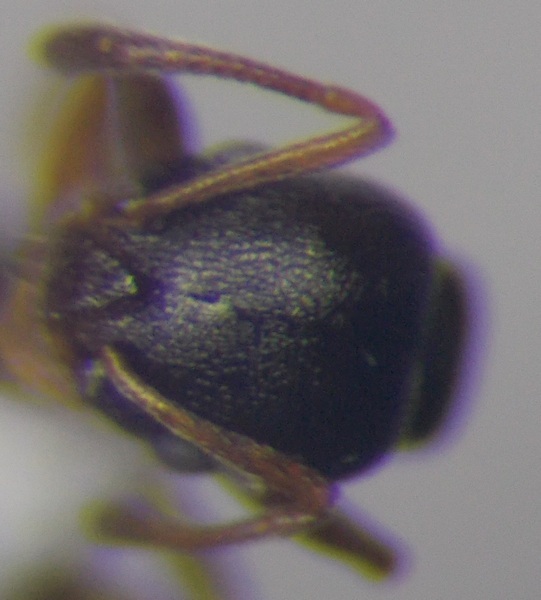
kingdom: Animalia
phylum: Arthropoda
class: Insecta
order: Hymenoptera
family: Formicidae
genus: Cardiocondyla
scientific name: Cardiocondyla stambuloffii
